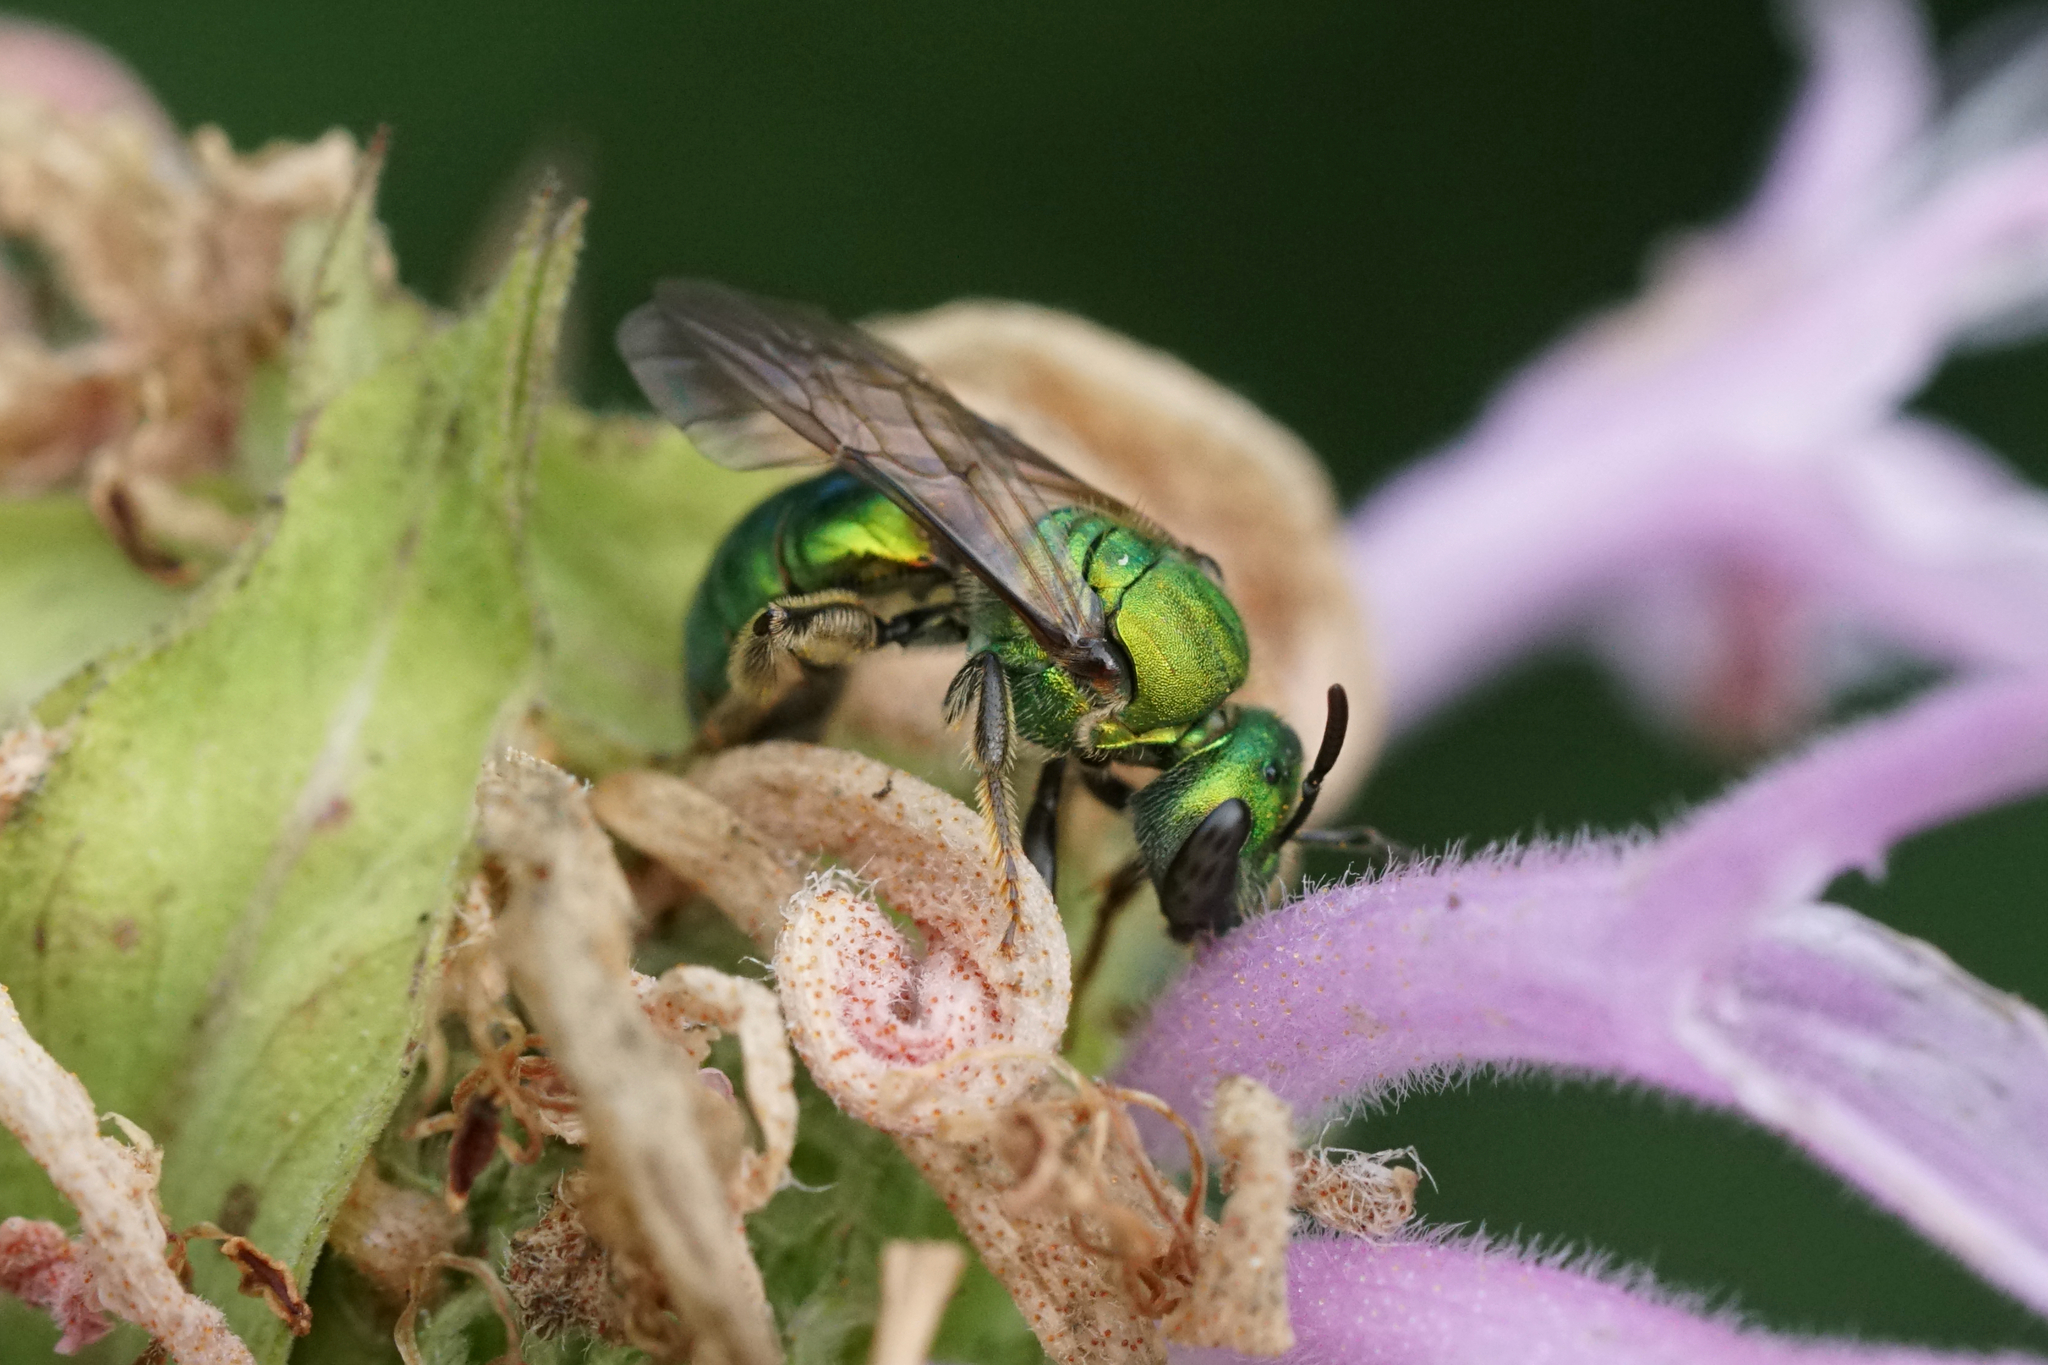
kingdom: Animalia
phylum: Arthropoda
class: Insecta
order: Hymenoptera
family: Halictidae
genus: Augochlora
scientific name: Augochlora pura
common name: Pure green sweat bee
